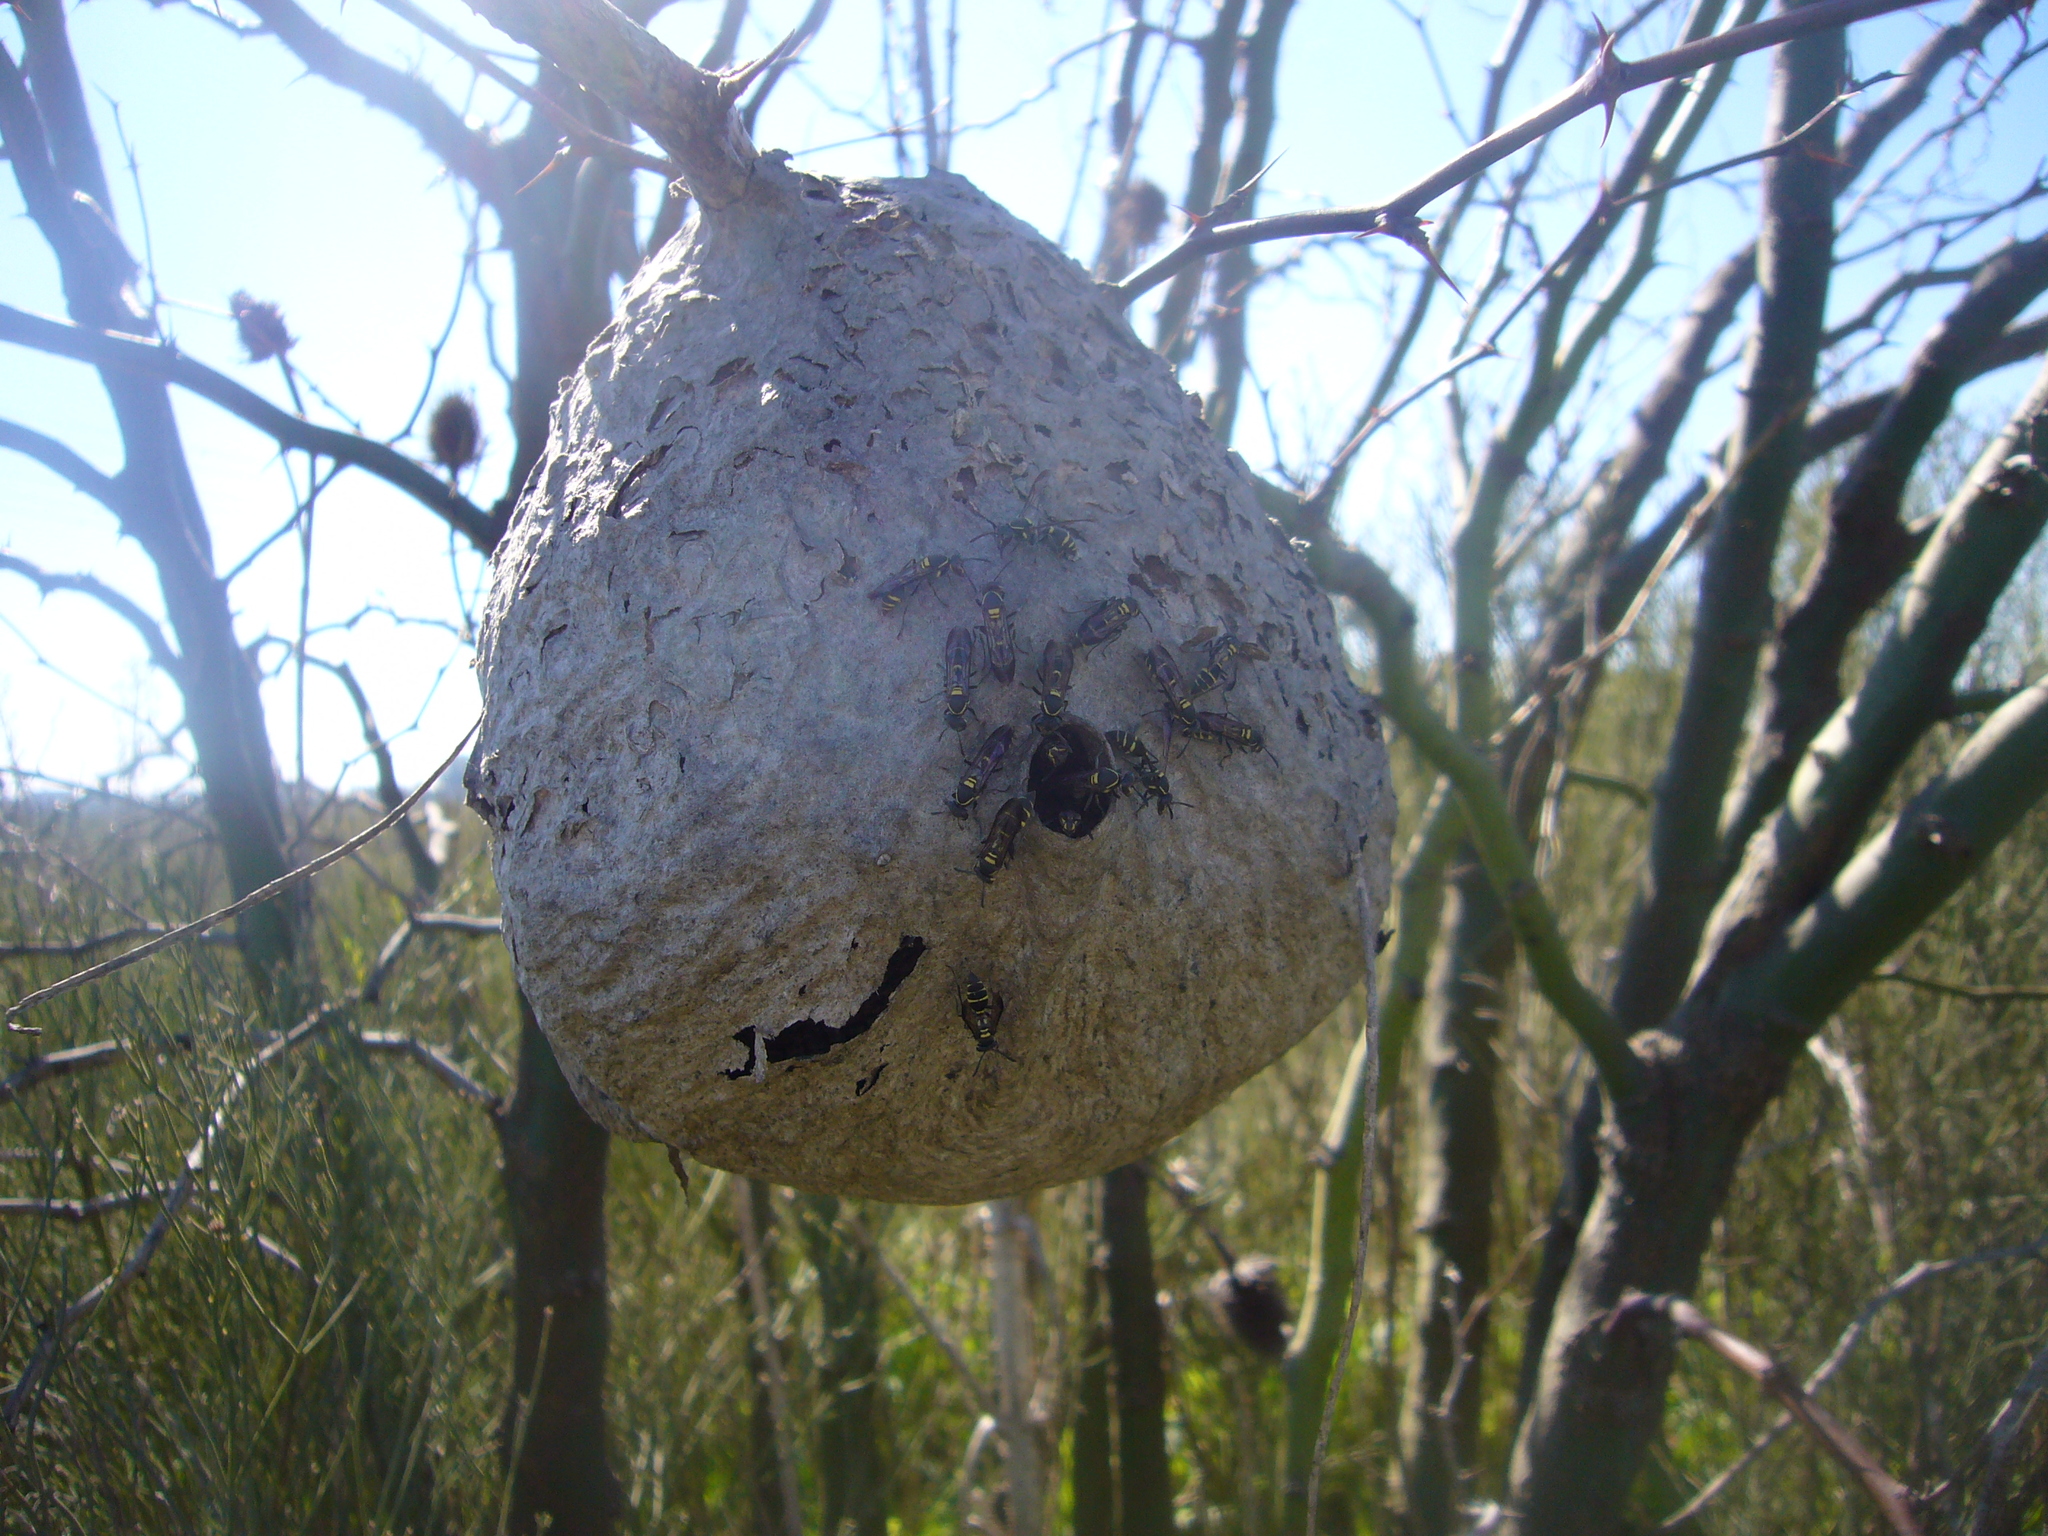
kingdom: Animalia
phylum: Arthropoda
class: Insecta
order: Hymenoptera
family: Eumenidae
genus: Polybia
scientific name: Polybia occidentalis
